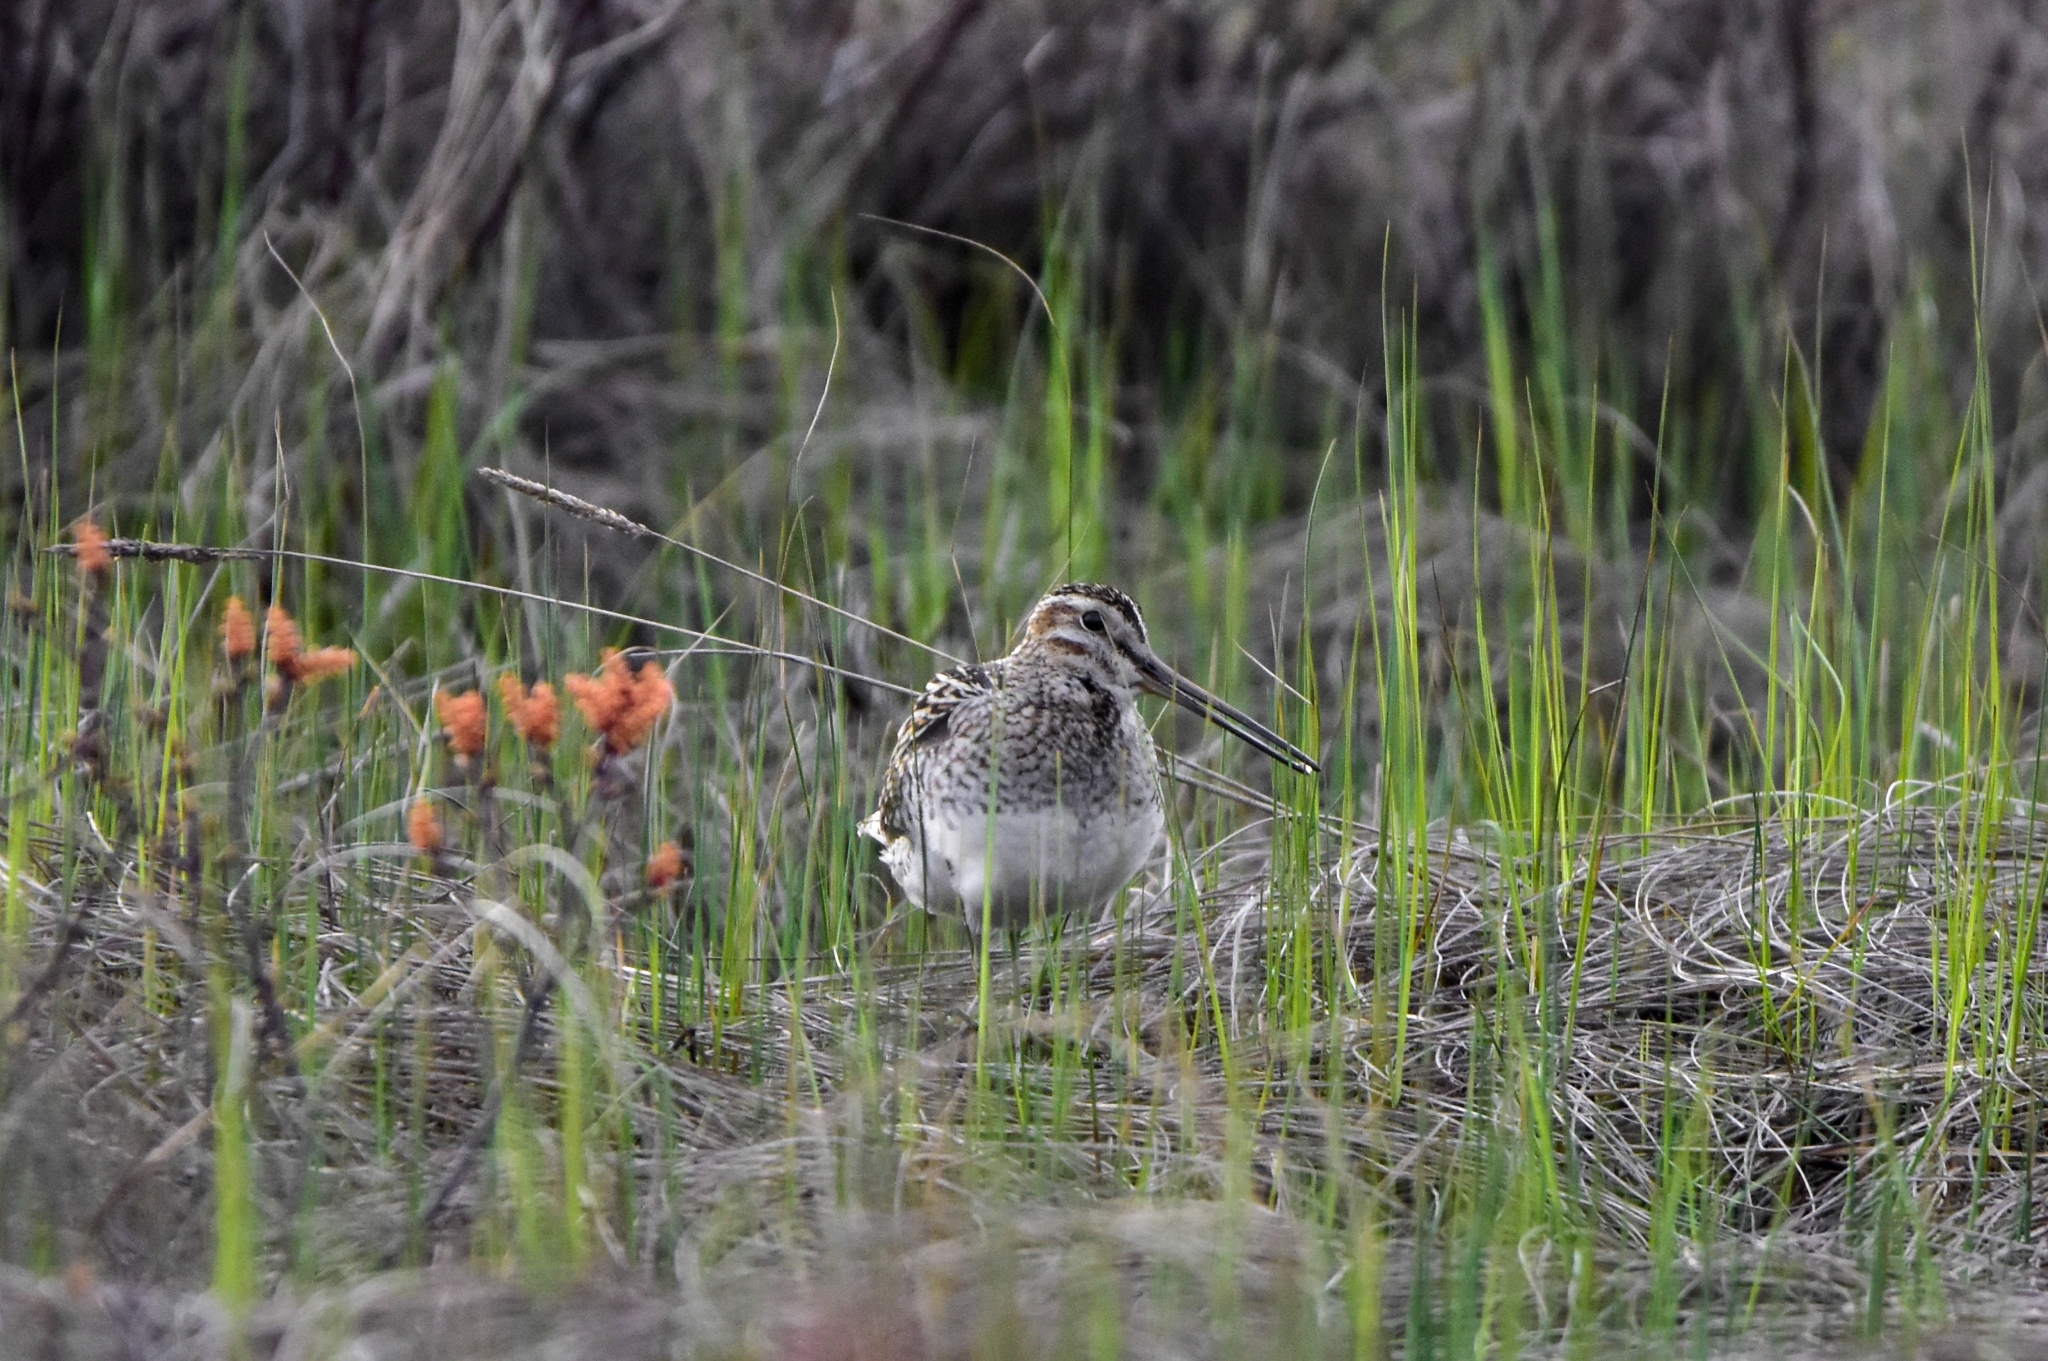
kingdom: Animalia
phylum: Chordata
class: Aves
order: Charadriiformes
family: Scolopacidae
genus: Gallinago
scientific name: Gallinago gallinago
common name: Common snipe
